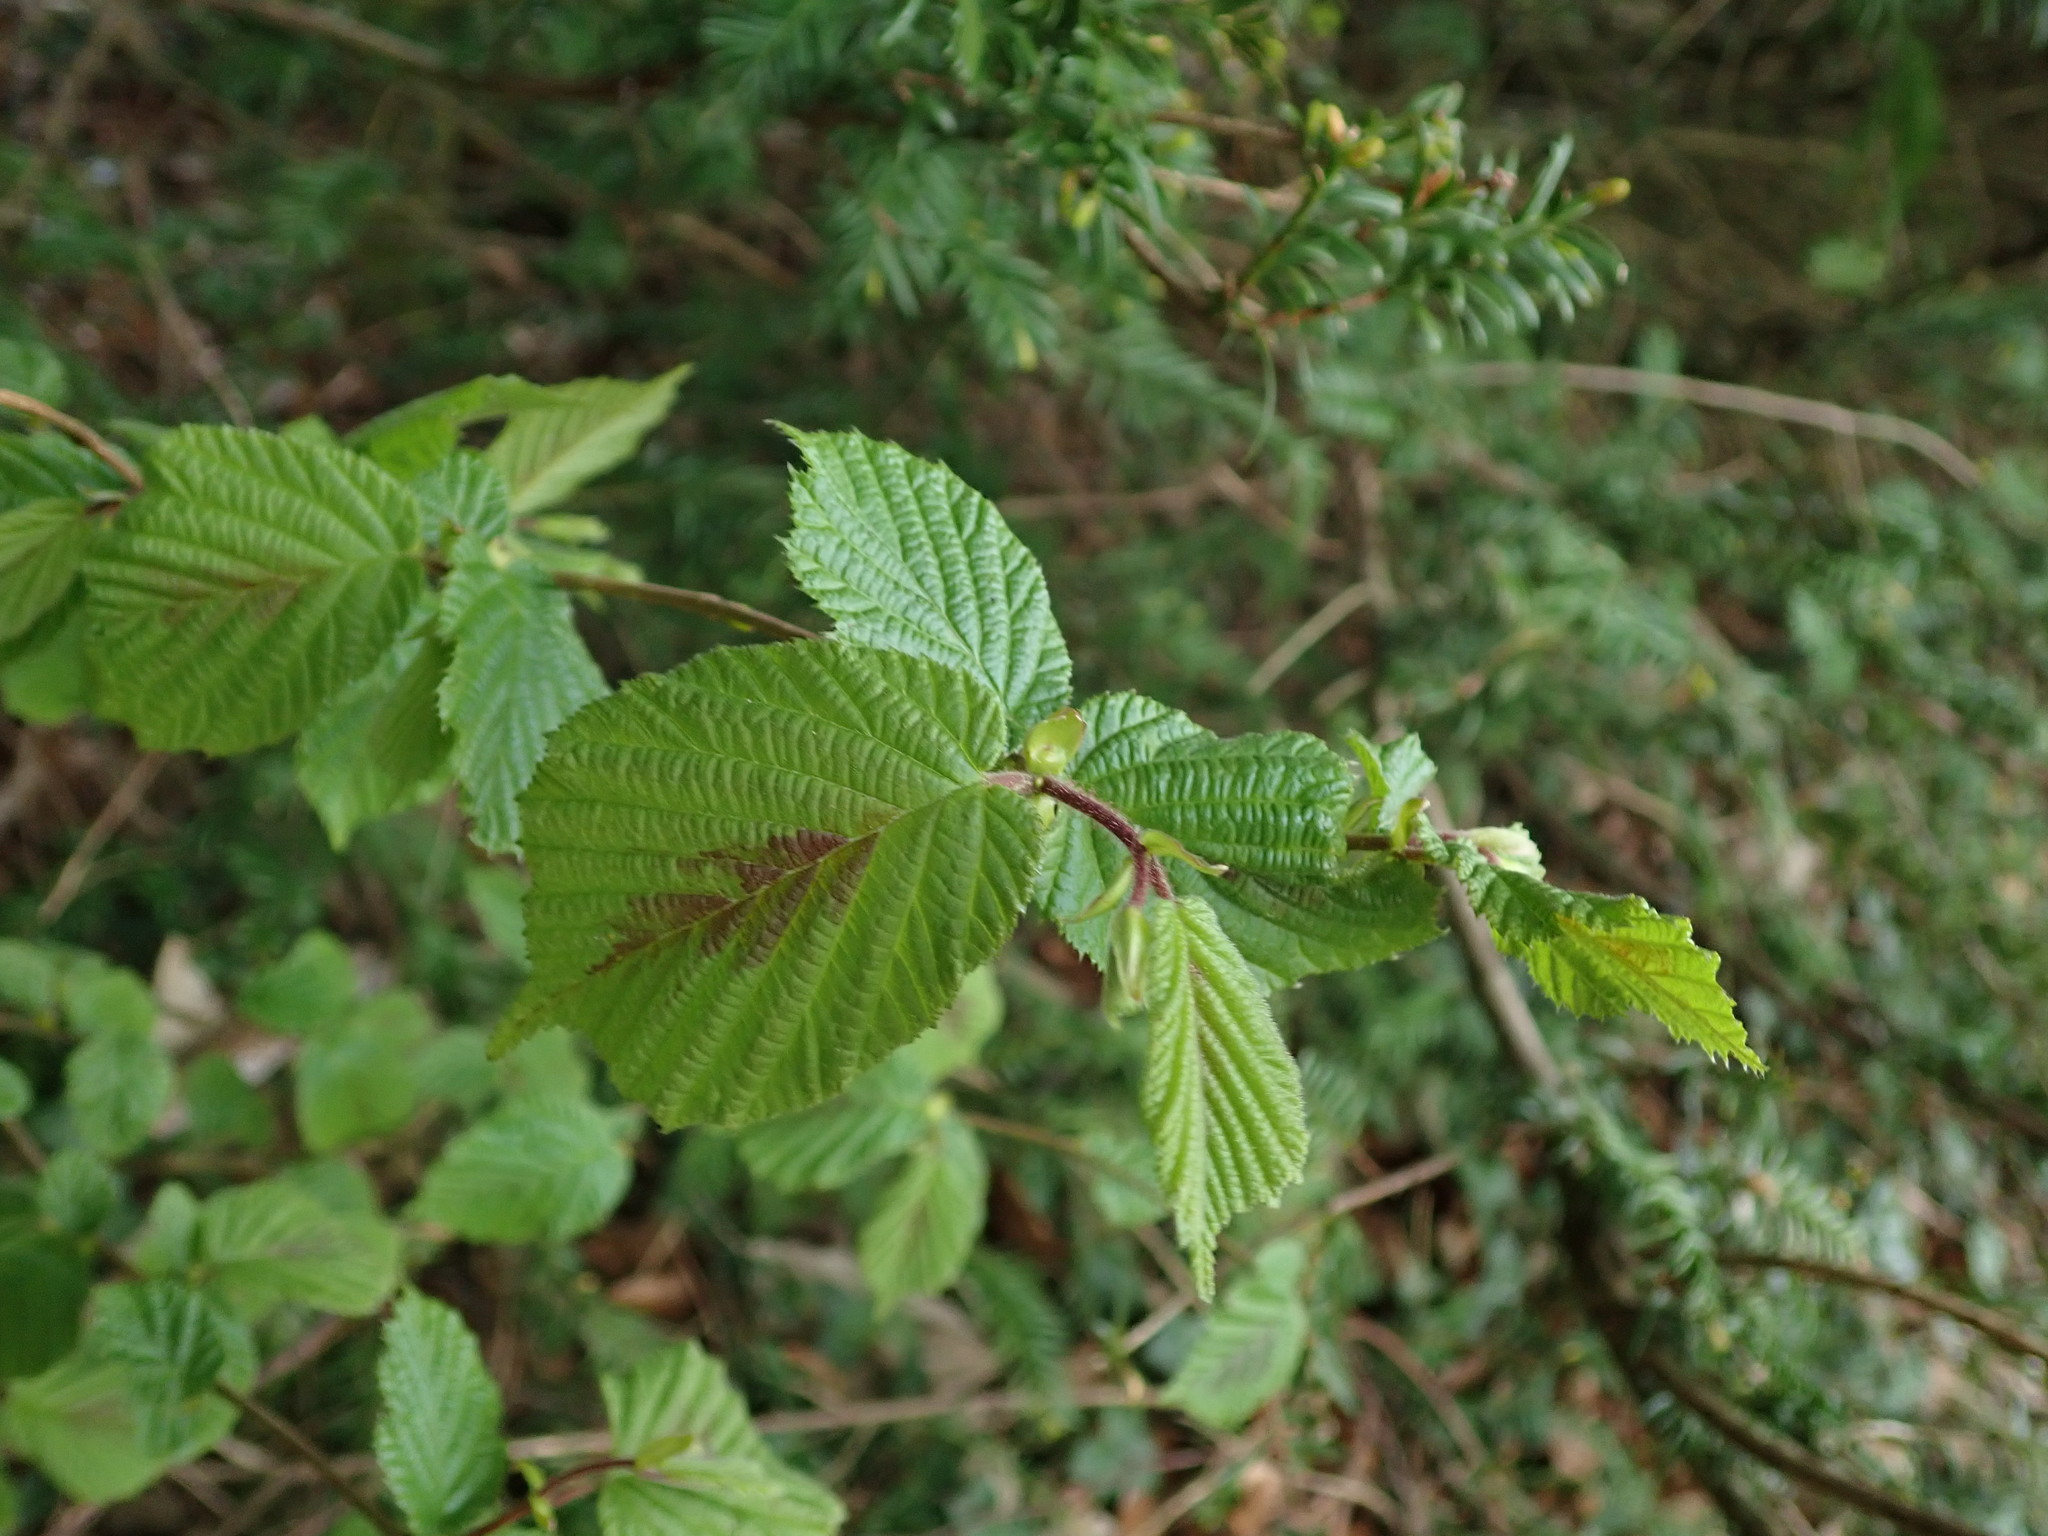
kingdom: Plantae
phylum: Tracheophyta
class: Magnoliopsida
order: Fagales
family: Betulaceae
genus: Corylus
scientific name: Corylus avellana
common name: European hazel
